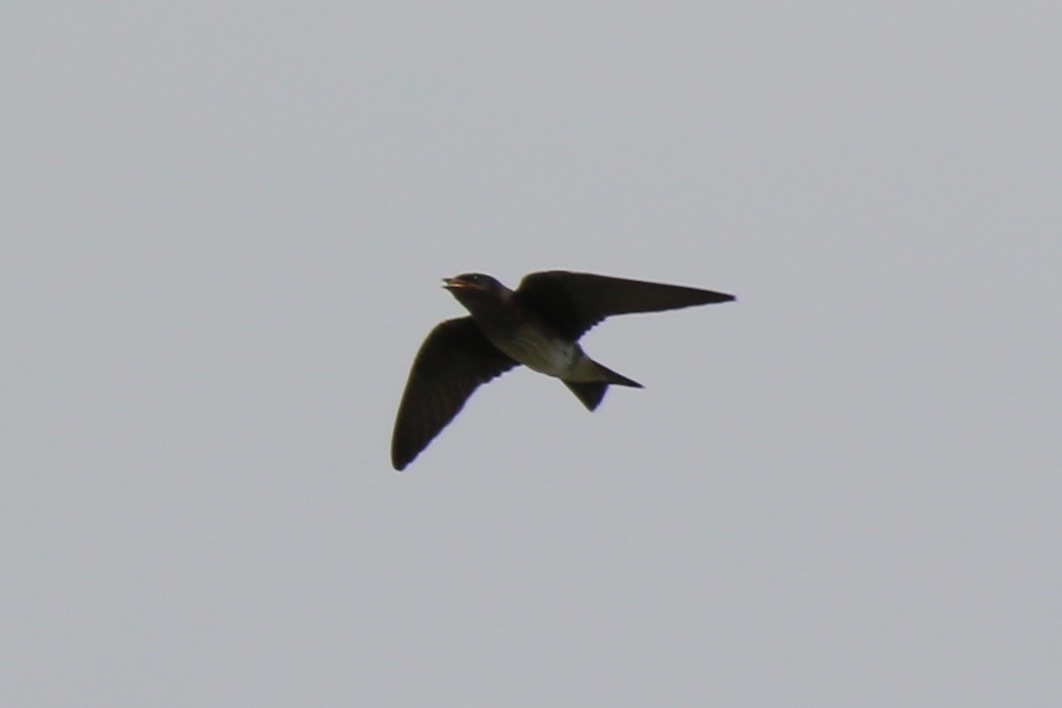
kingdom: Animalia
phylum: Chordata
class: Aves
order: Passeriformes
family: Hirundinidae
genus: Progne
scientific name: Progne subis
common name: Purple martin
